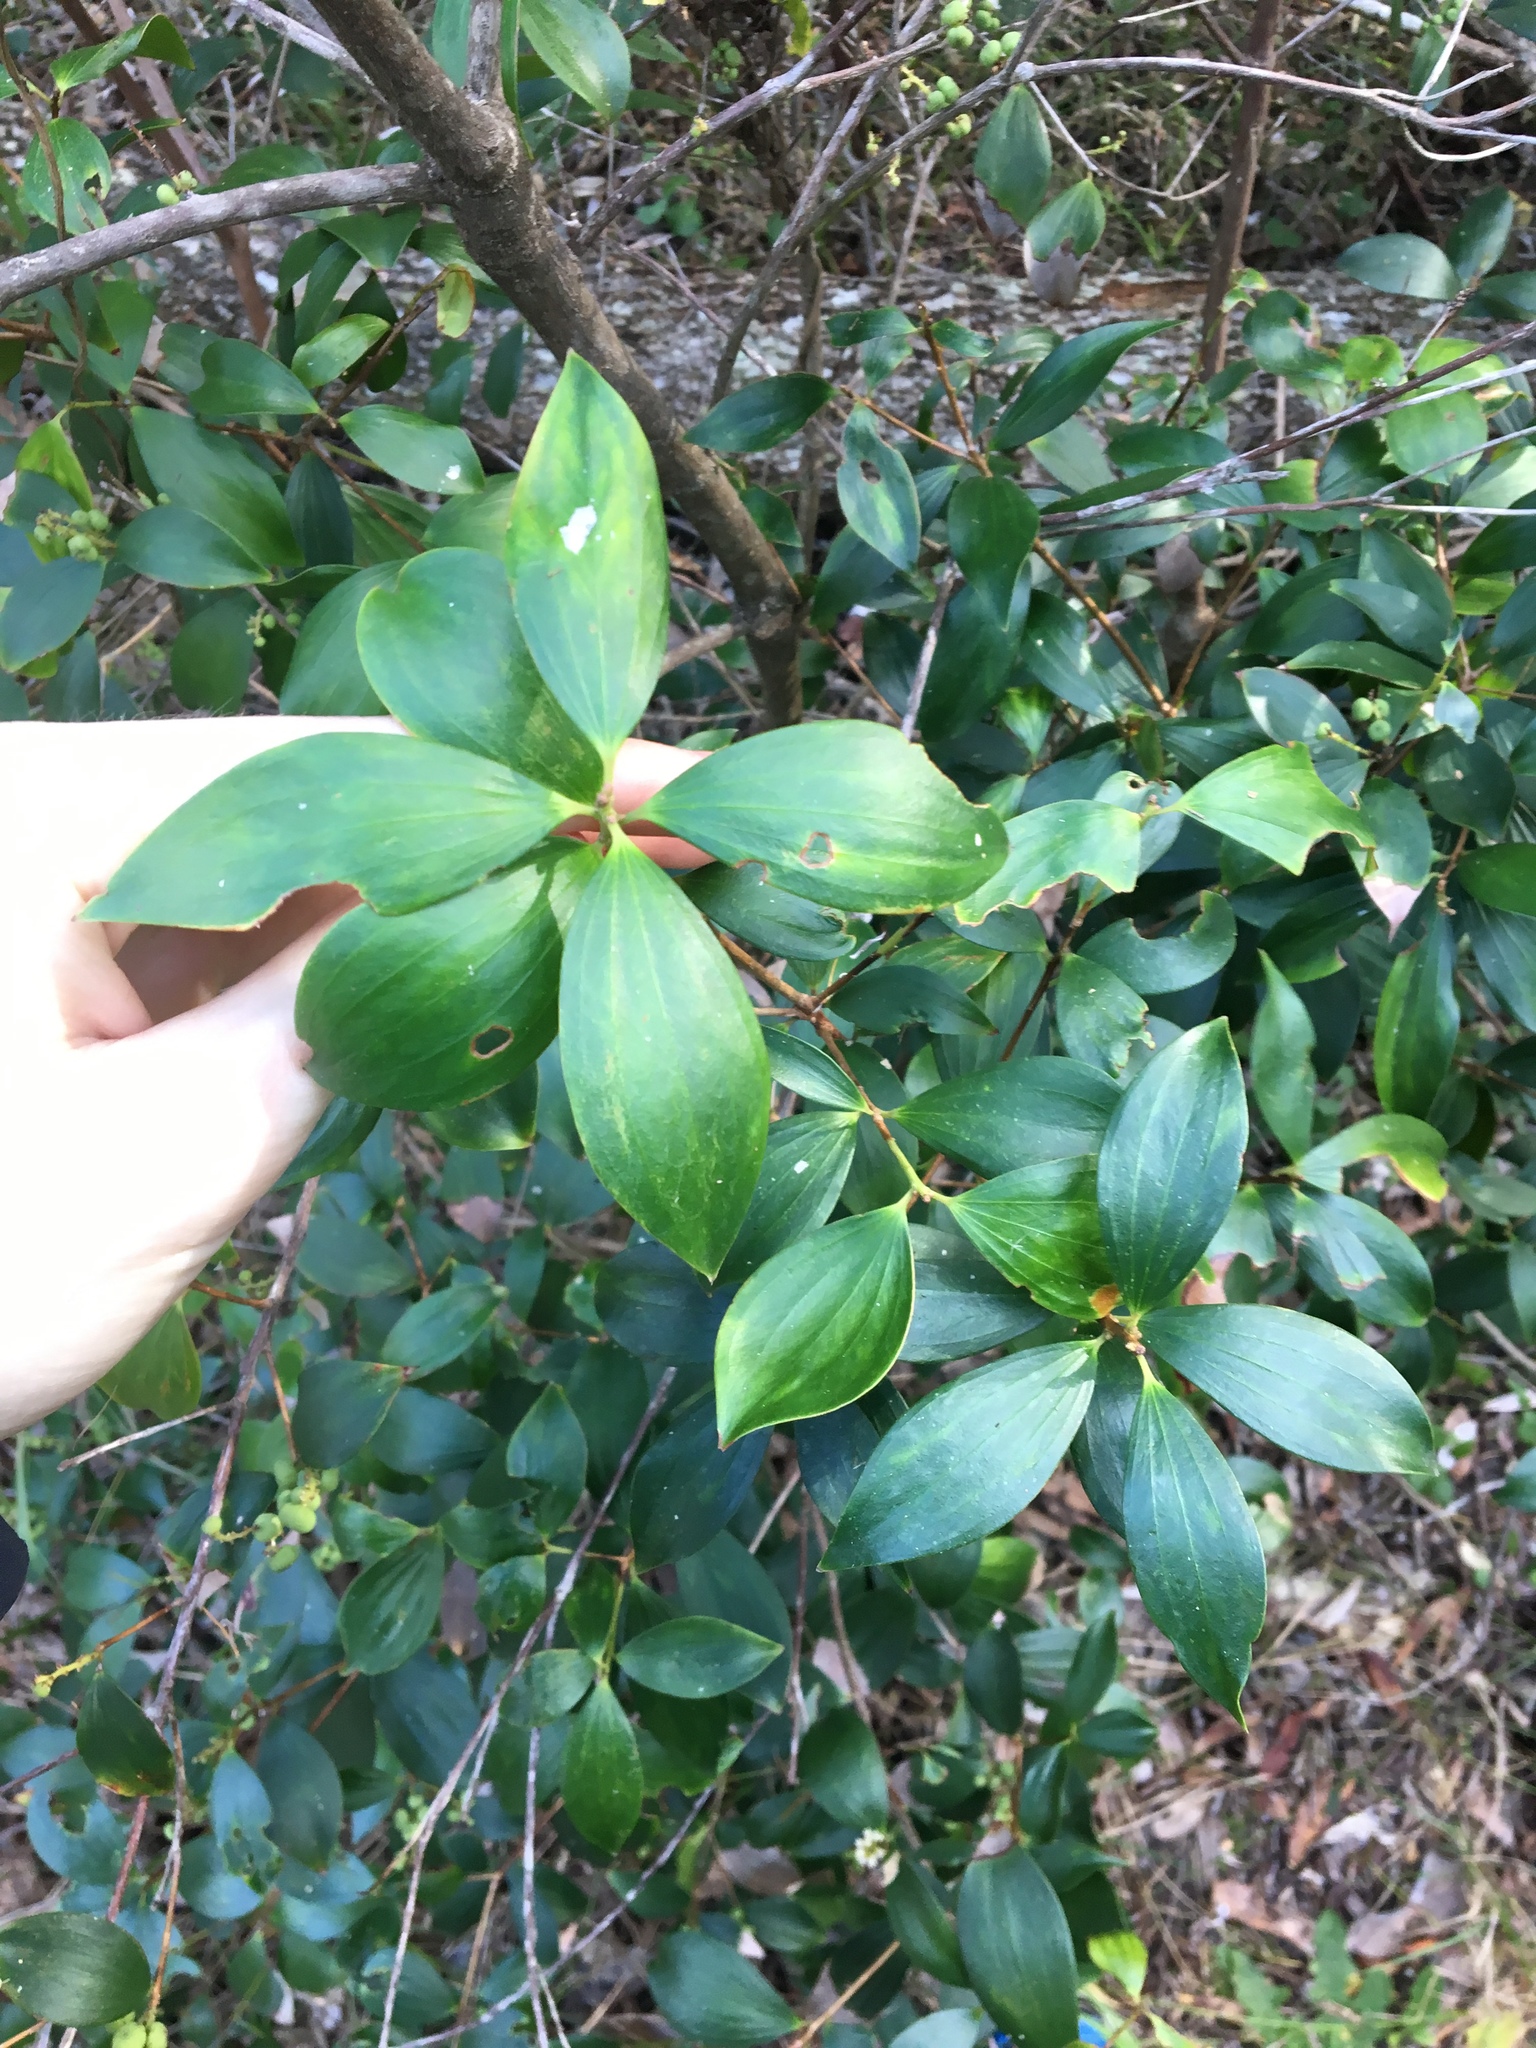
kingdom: Plantae
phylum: Tracheophyta
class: Magnoliopsida
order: Ericales
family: Ericaceae
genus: Trochocarpa
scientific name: Trochocarpa laurina
